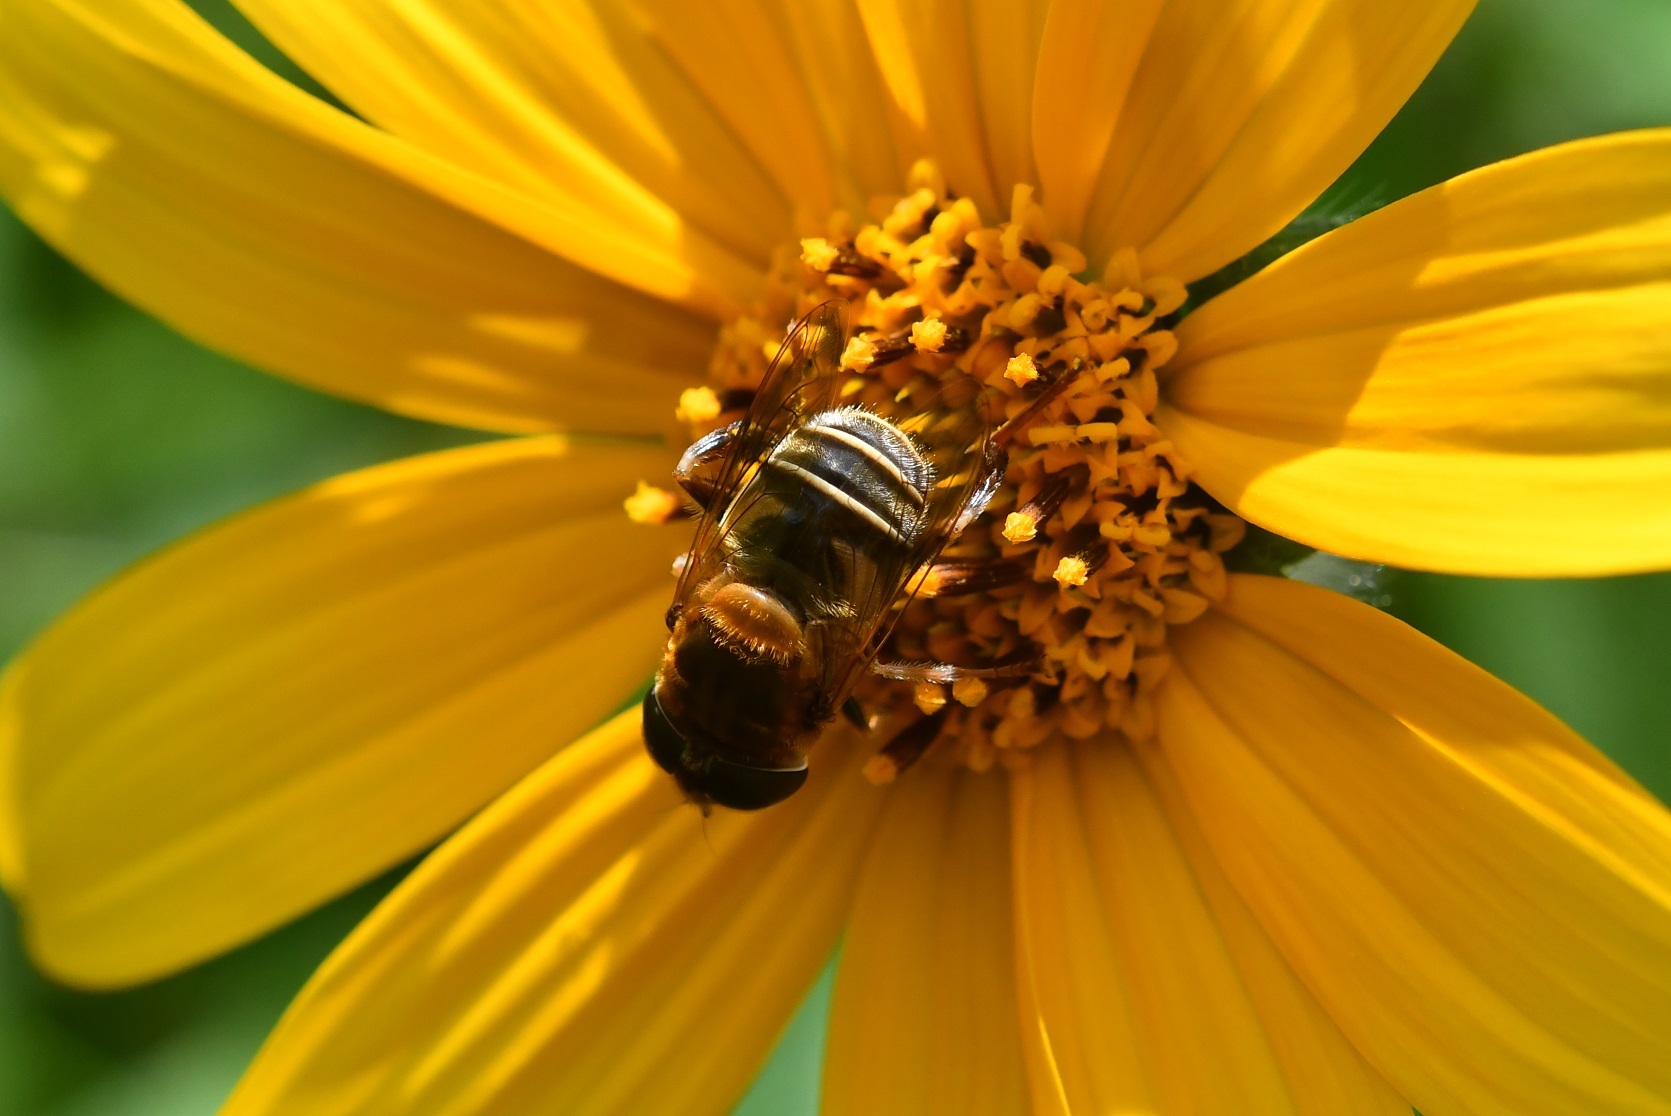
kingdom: Animalia
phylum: Arthropoda
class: Insecta
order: Diptera
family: Syrphidae
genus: Palpada
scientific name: Palpada mexicana
